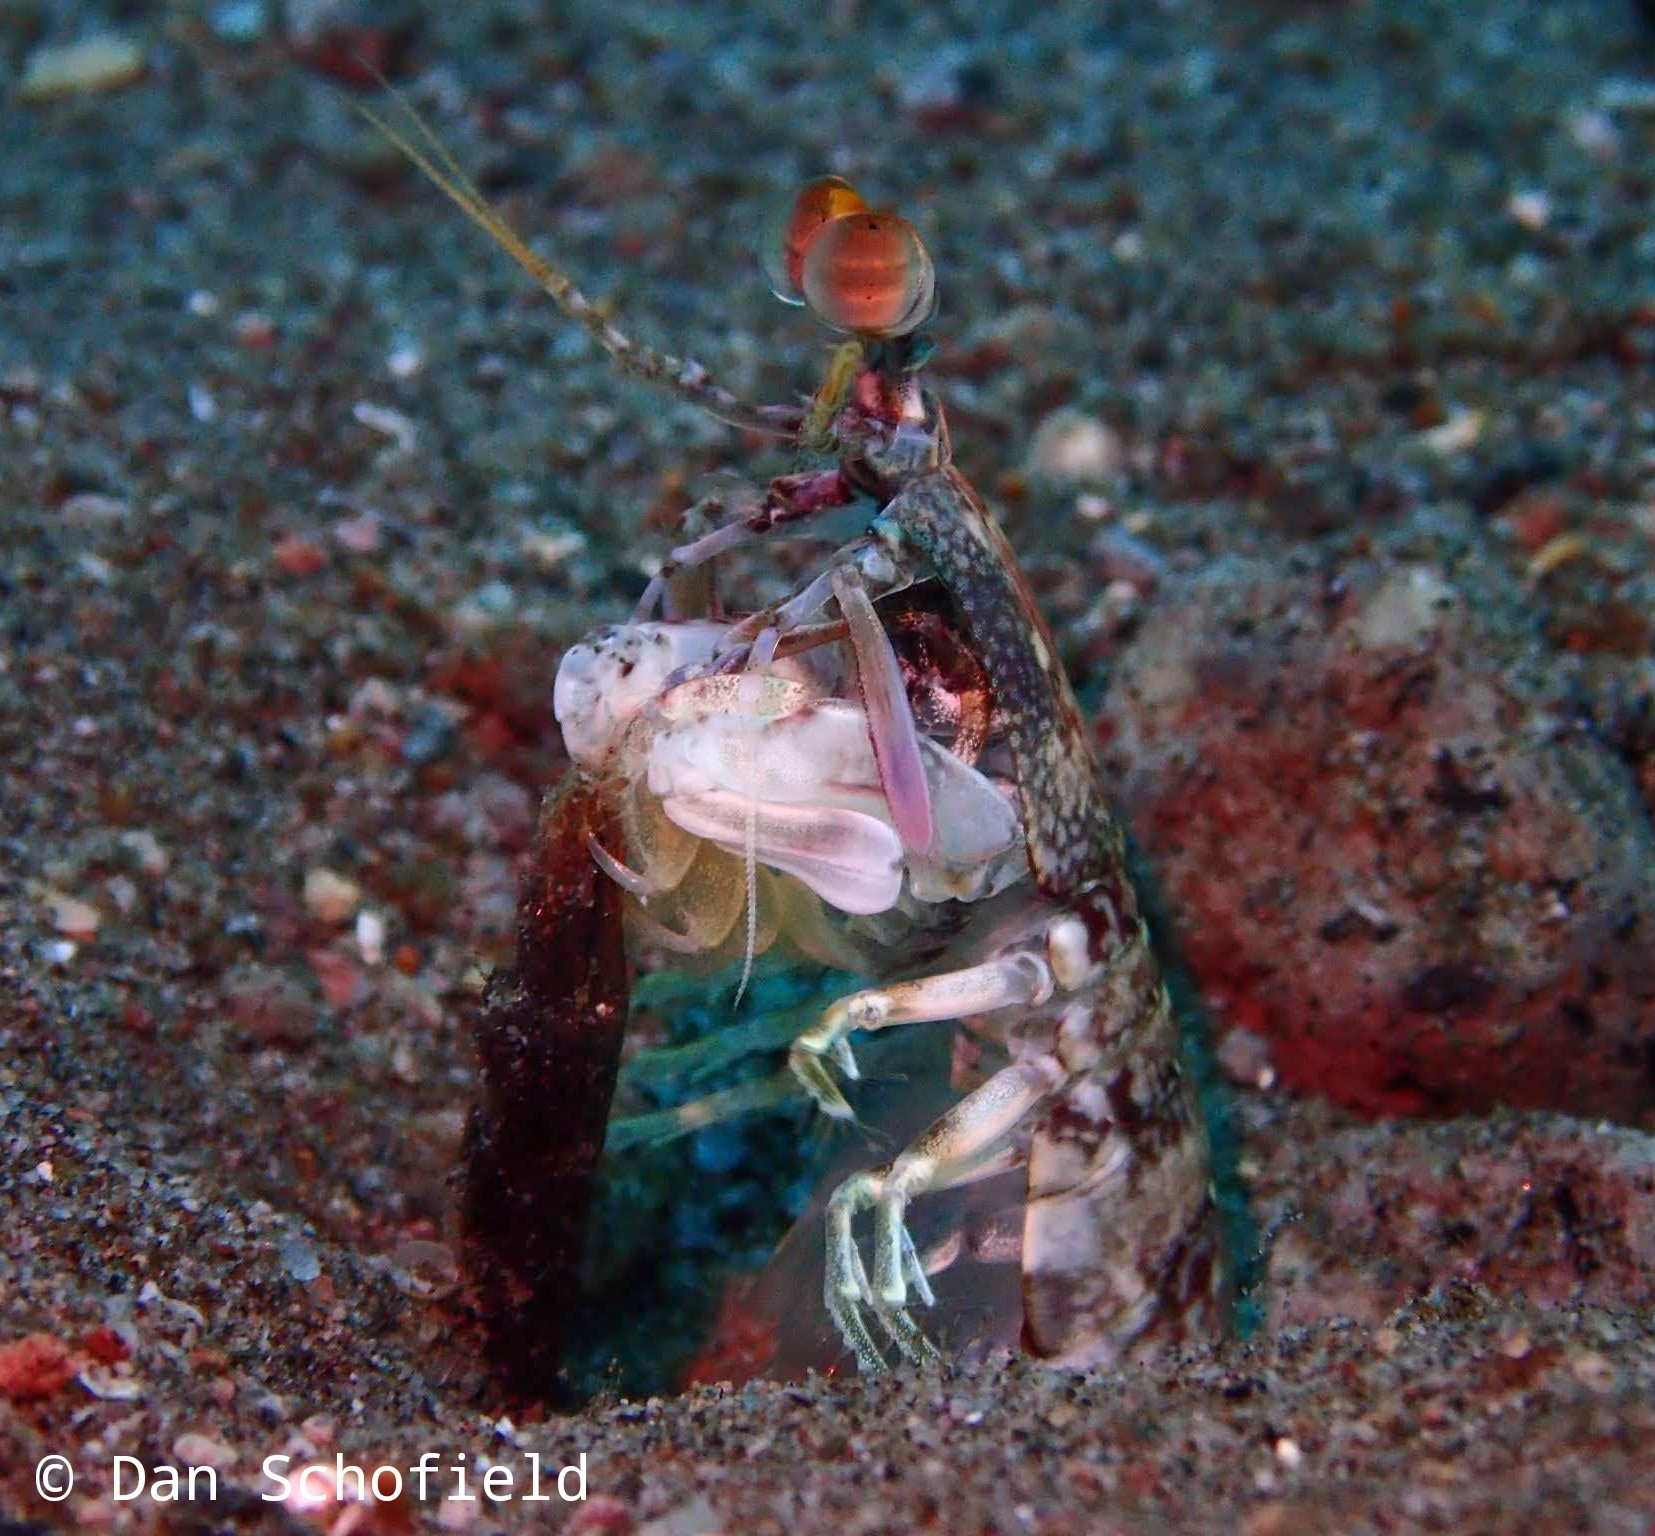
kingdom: Animalia
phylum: Arthropoda
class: Malacostraca
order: Stomatopoda
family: Odontodactylidae
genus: Odontodactylus
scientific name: Odontodactylus latirostris
